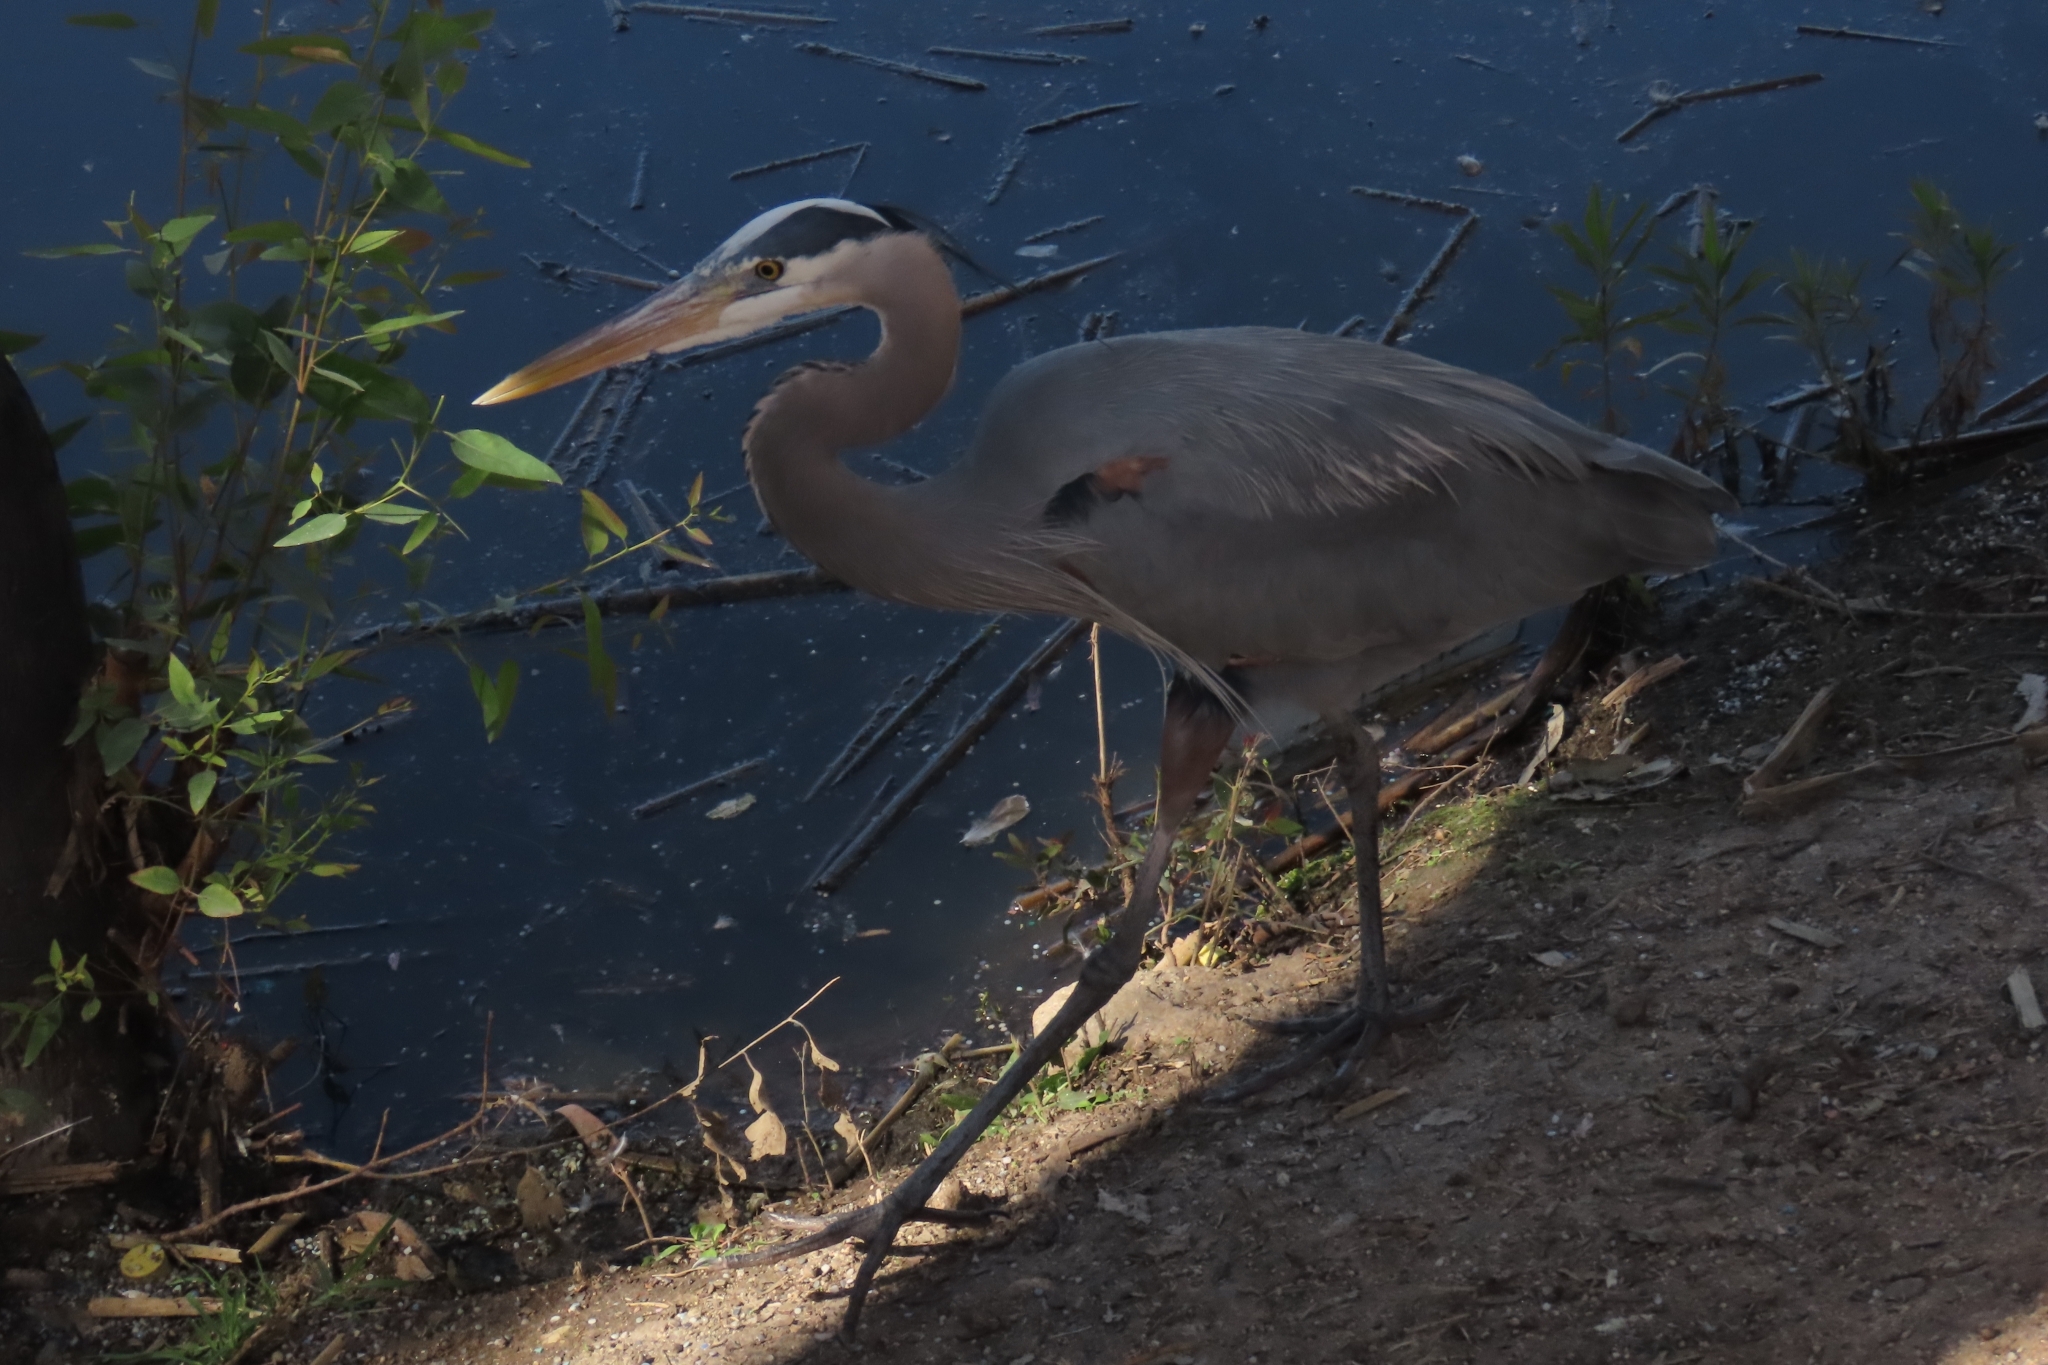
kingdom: Animalia
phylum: Chordata
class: Aves
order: Pelecaniformes
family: Ardeidae
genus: Ardea
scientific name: Ardea herodias
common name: Great blue heron
